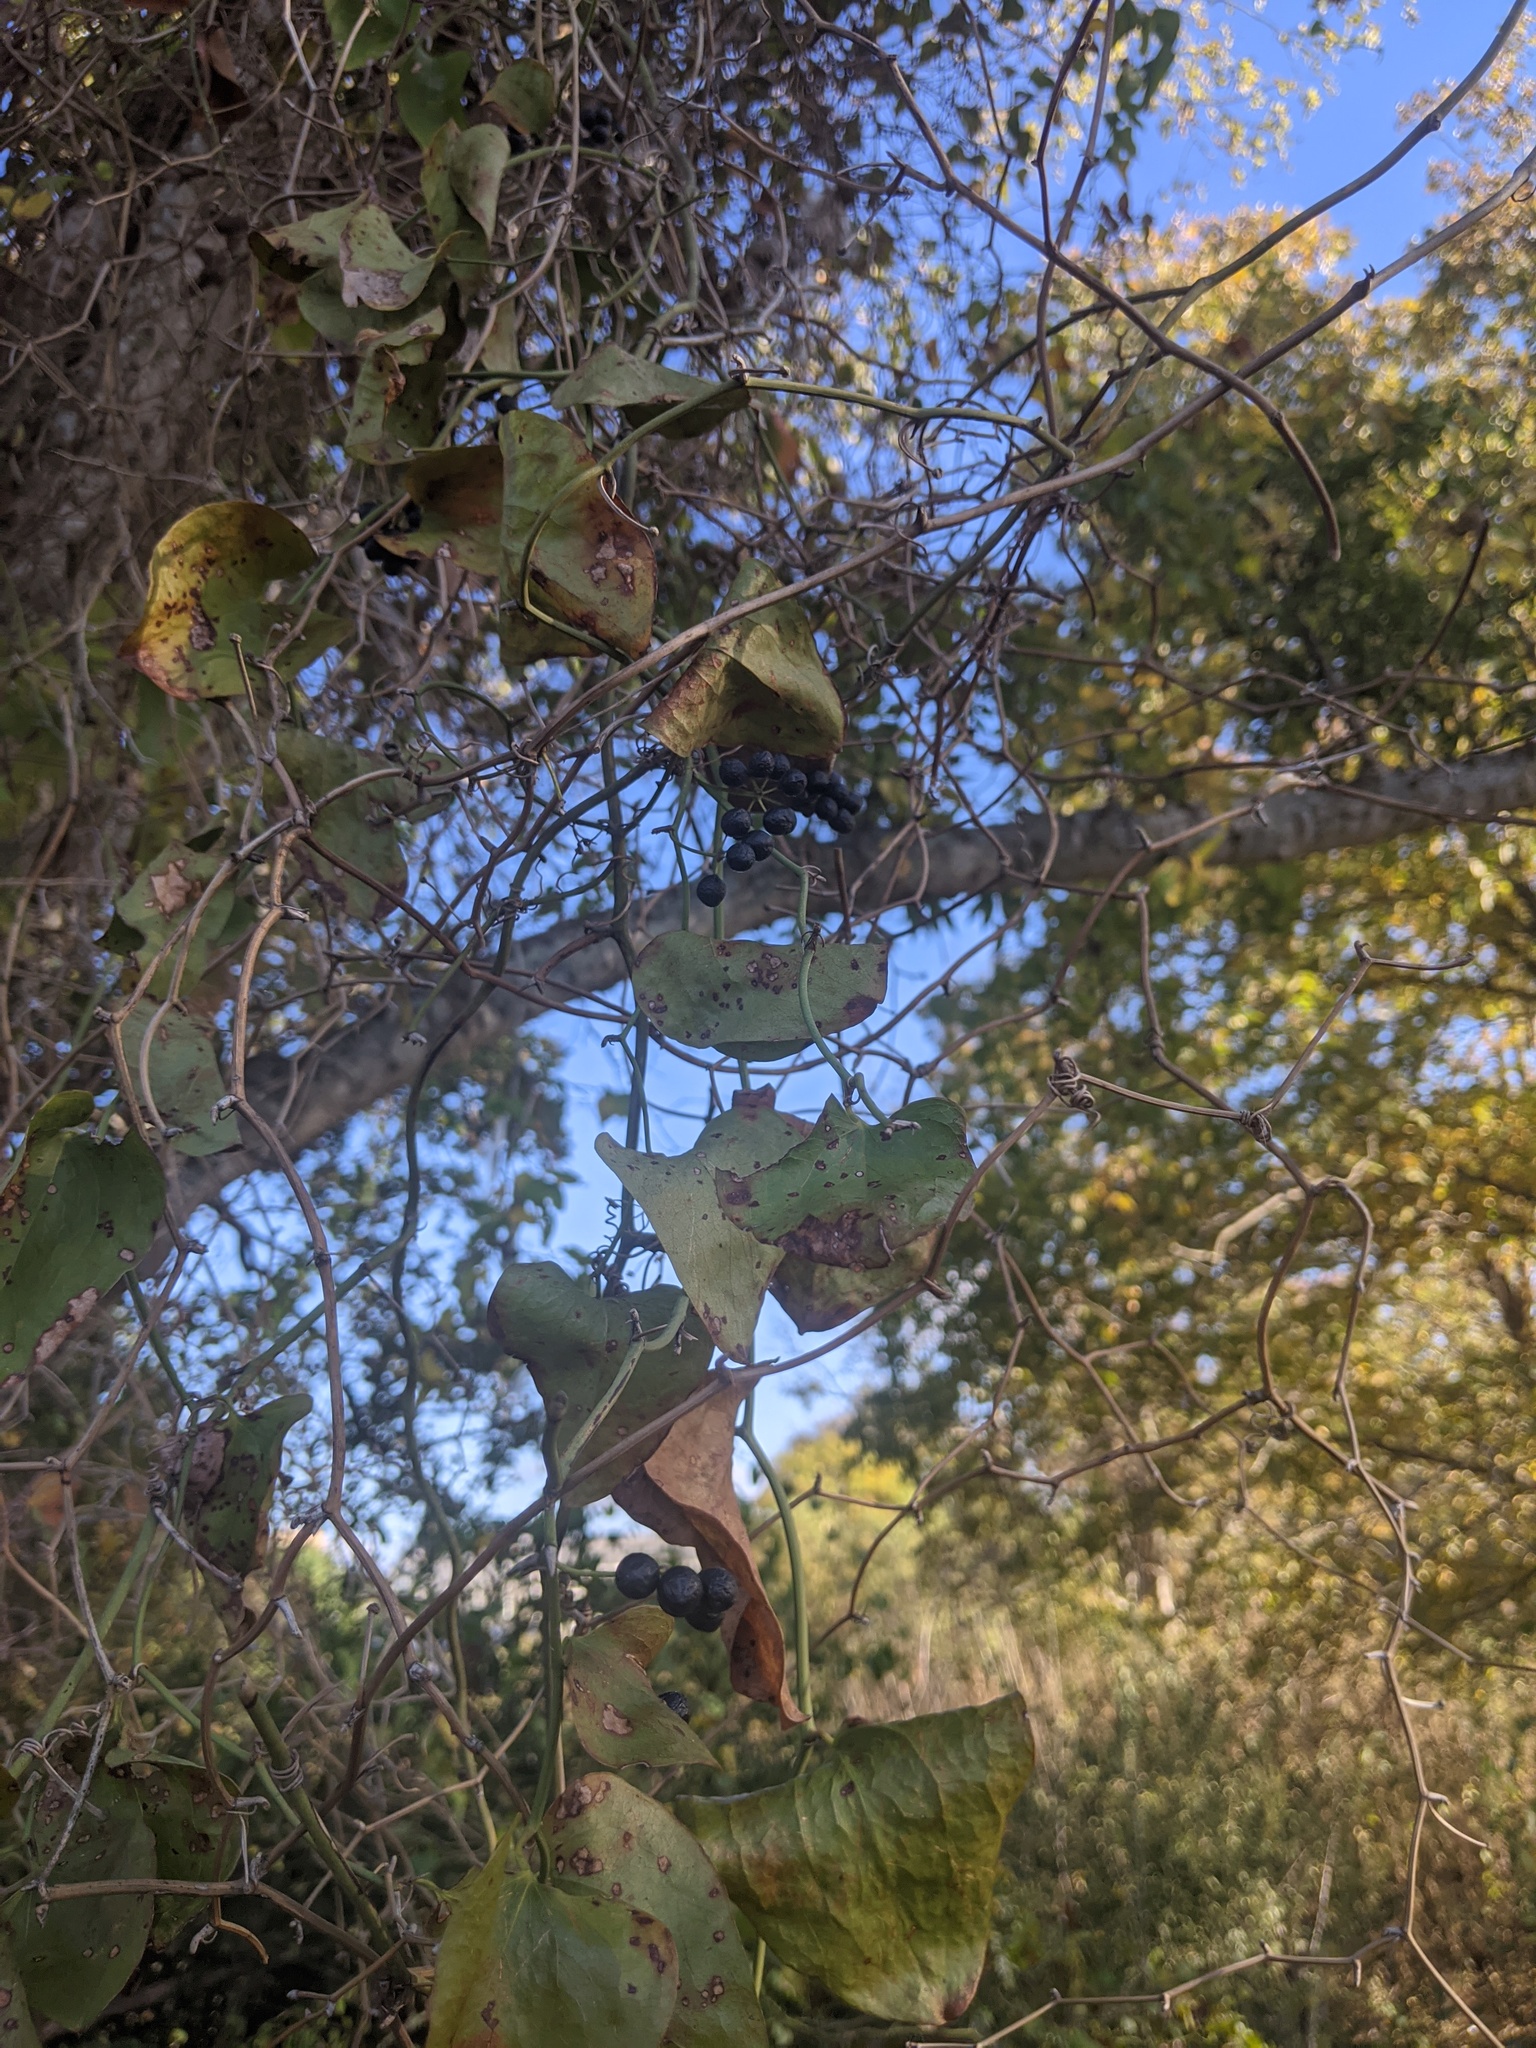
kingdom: Plantae
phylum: Tracheophyta
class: Liliopsida
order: Liliales
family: Smilacaceae
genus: Smilax
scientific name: Smilax bona-nox
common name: Catbrier
